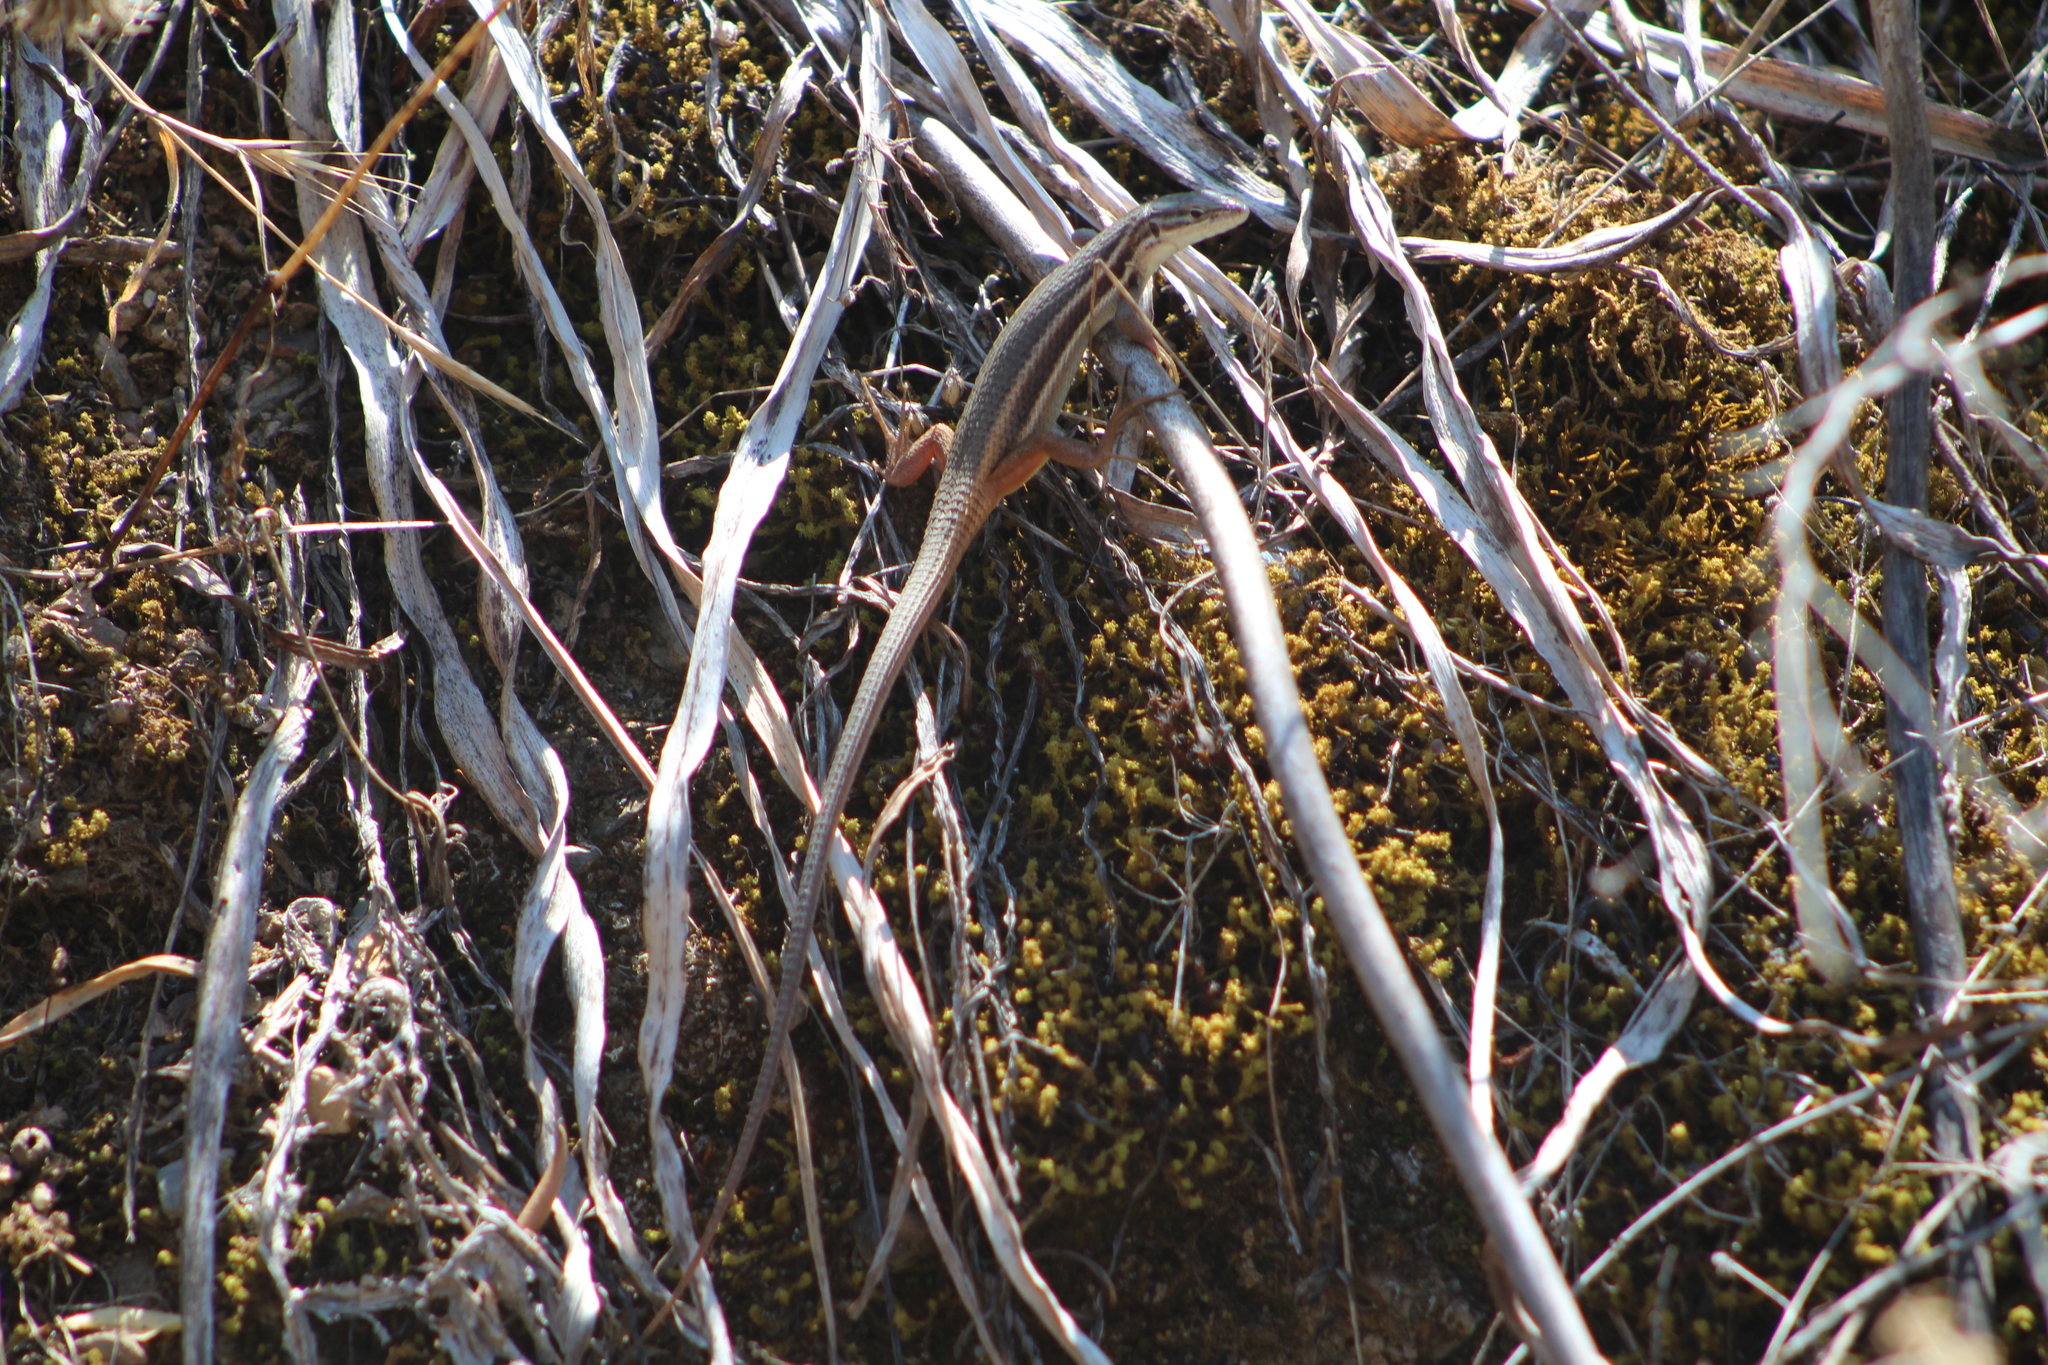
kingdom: Animalia
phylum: Chordata
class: Squamata
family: Lacertidae
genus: Psammodromus
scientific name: Psammodromus algirus
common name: Algerian psammodromus
